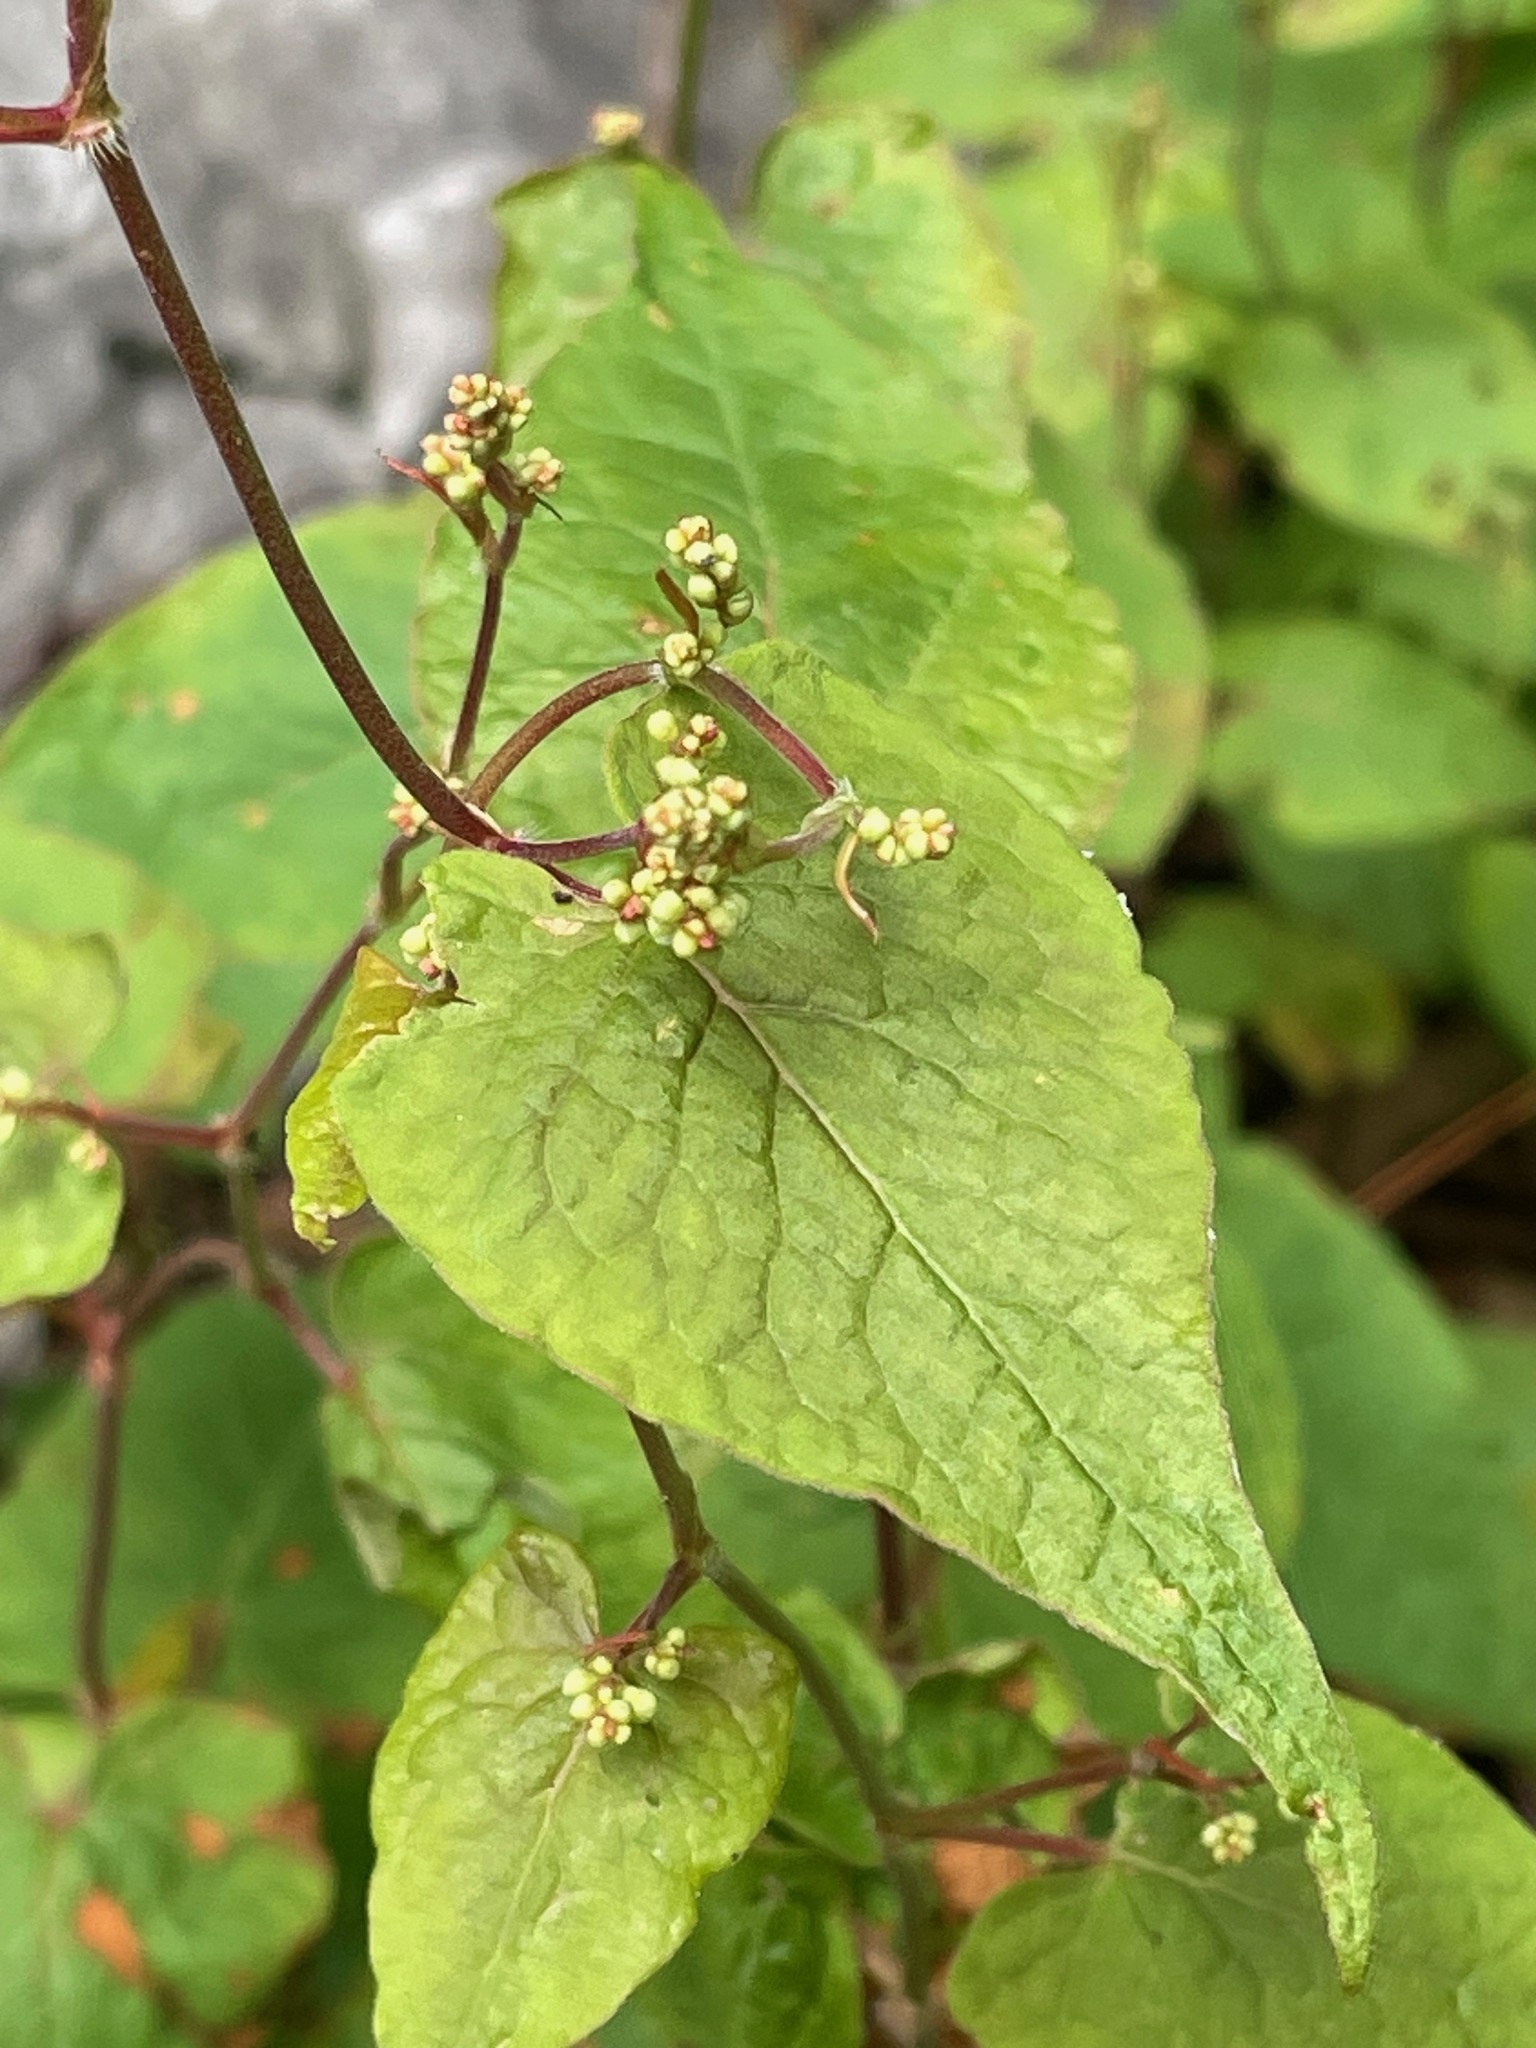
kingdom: Plantae
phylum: Tracheophyta
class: Magnoliopsida
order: Caryophyllales
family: Polygonaceae
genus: Parogonum
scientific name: Parogonum ciliinode
